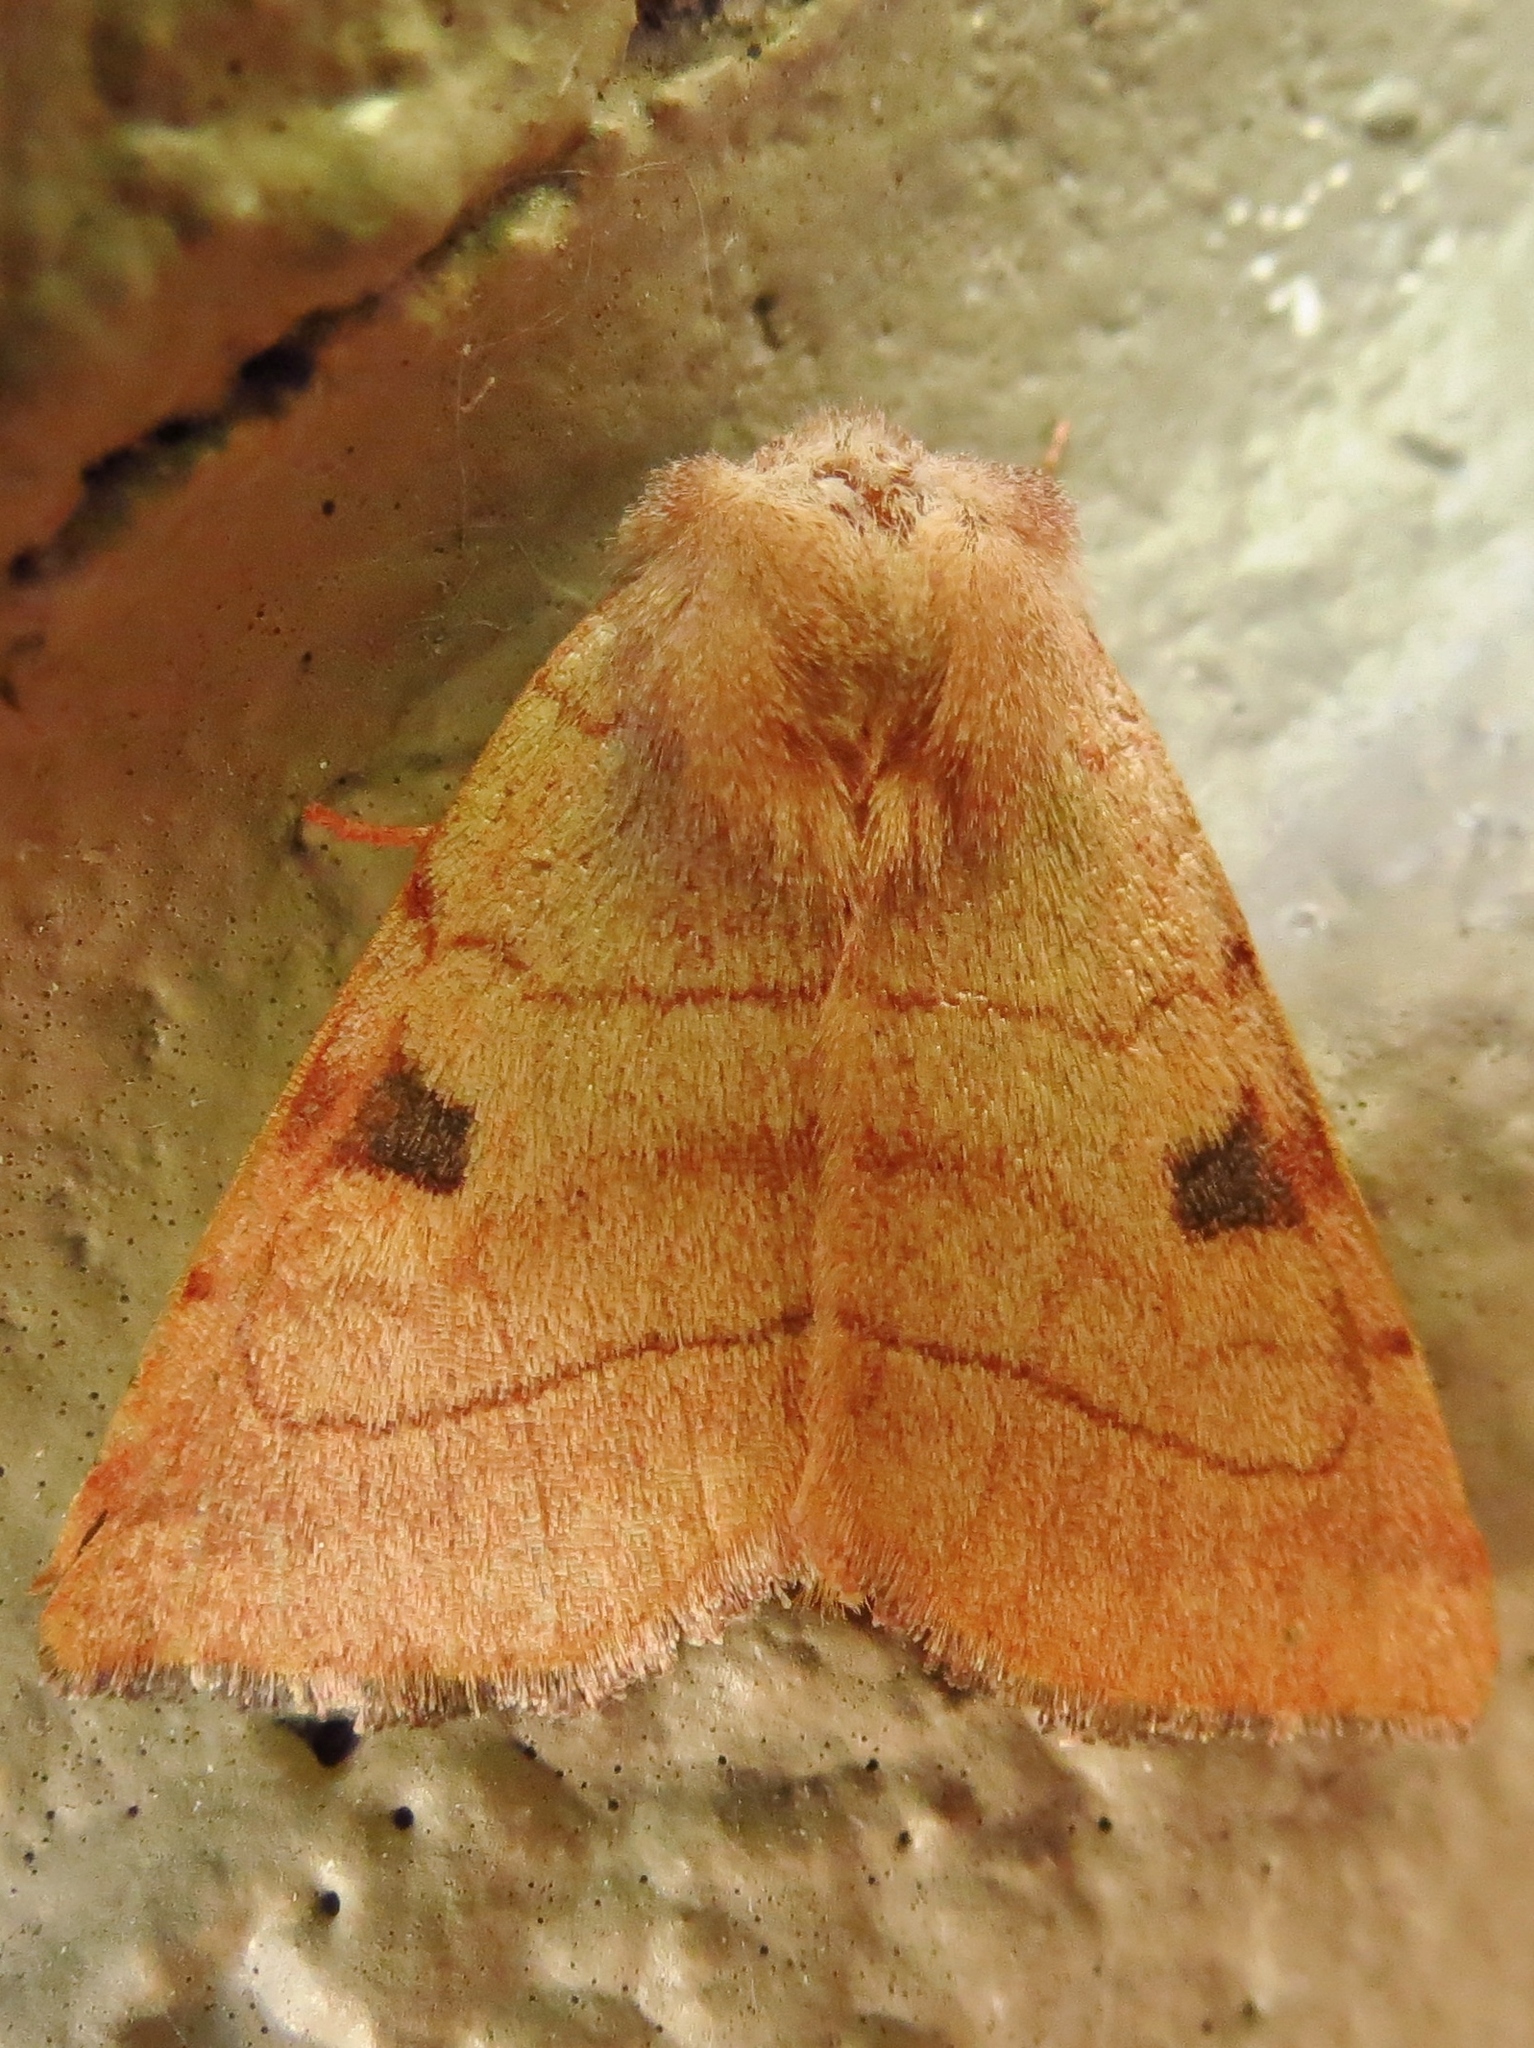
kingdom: Animalia
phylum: Arthropoda
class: Insecta
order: Lepidoptera
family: Noctuidae
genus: Choephora
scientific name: Choephora fungorum
